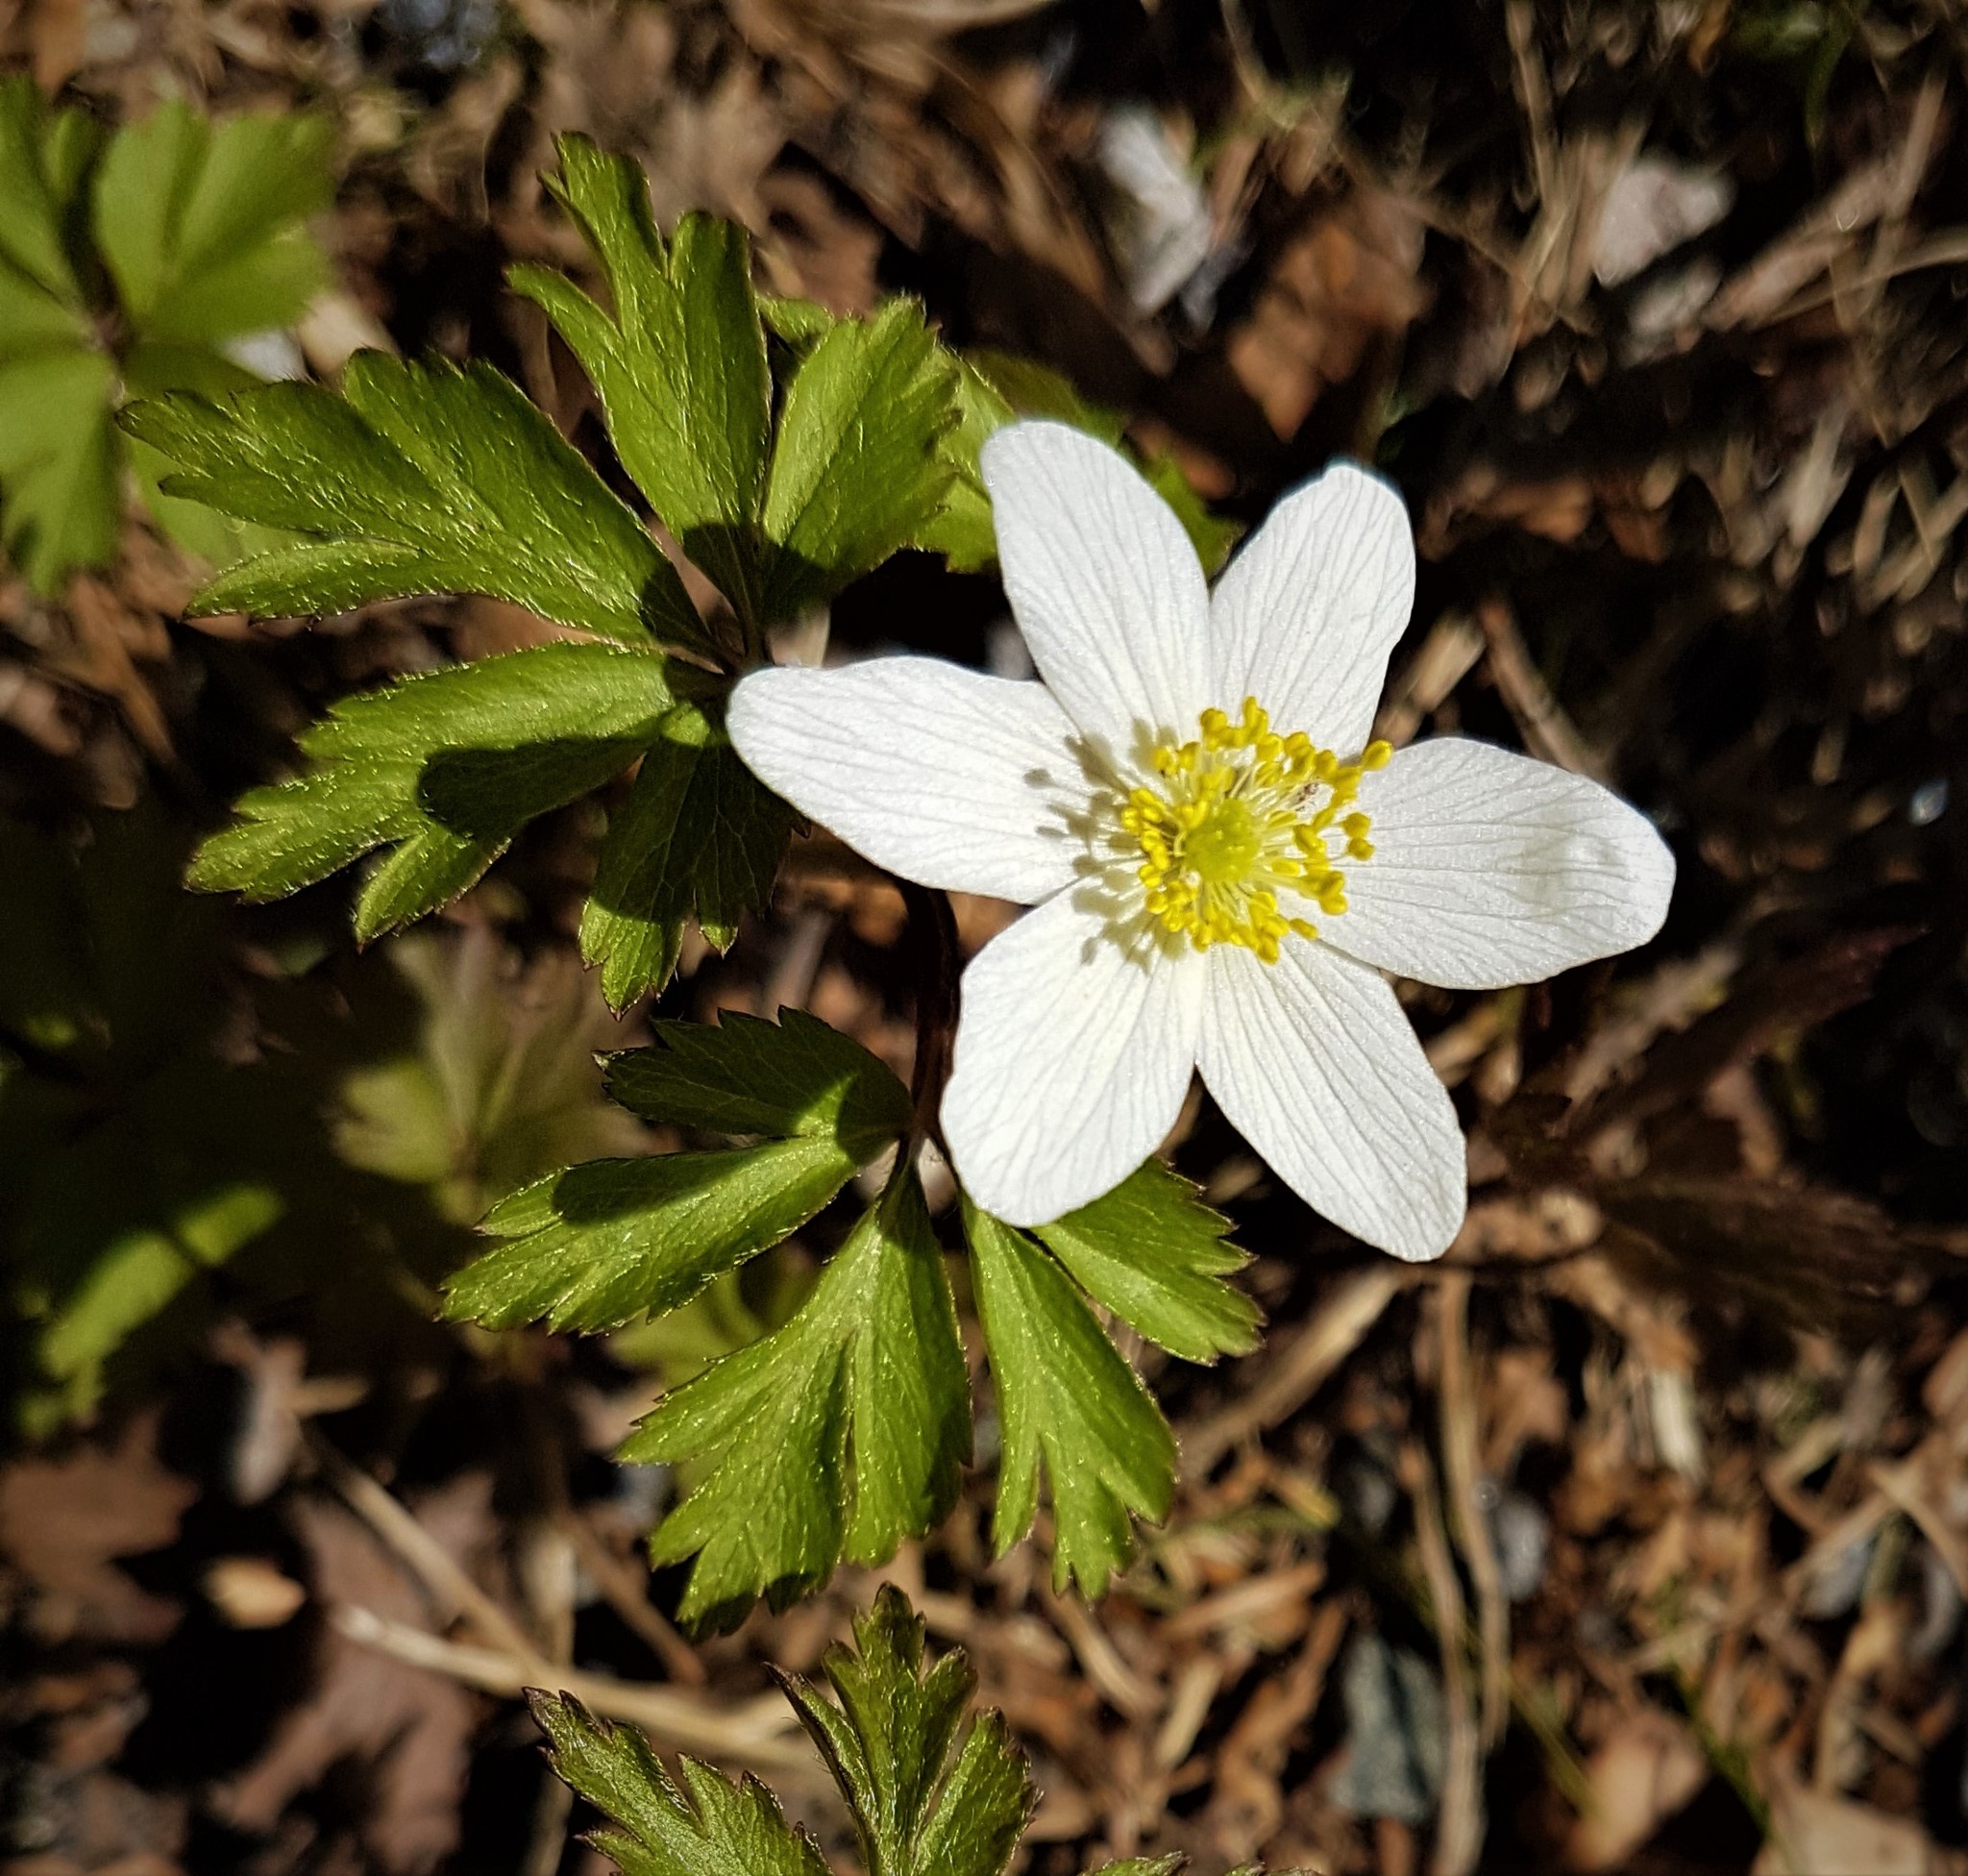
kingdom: Plantae
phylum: Tracheophyta
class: Magnoliopsida
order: Ranunculales
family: Ranunculaceae
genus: Anemone
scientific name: Anemone nemorosa
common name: Wood anemone
